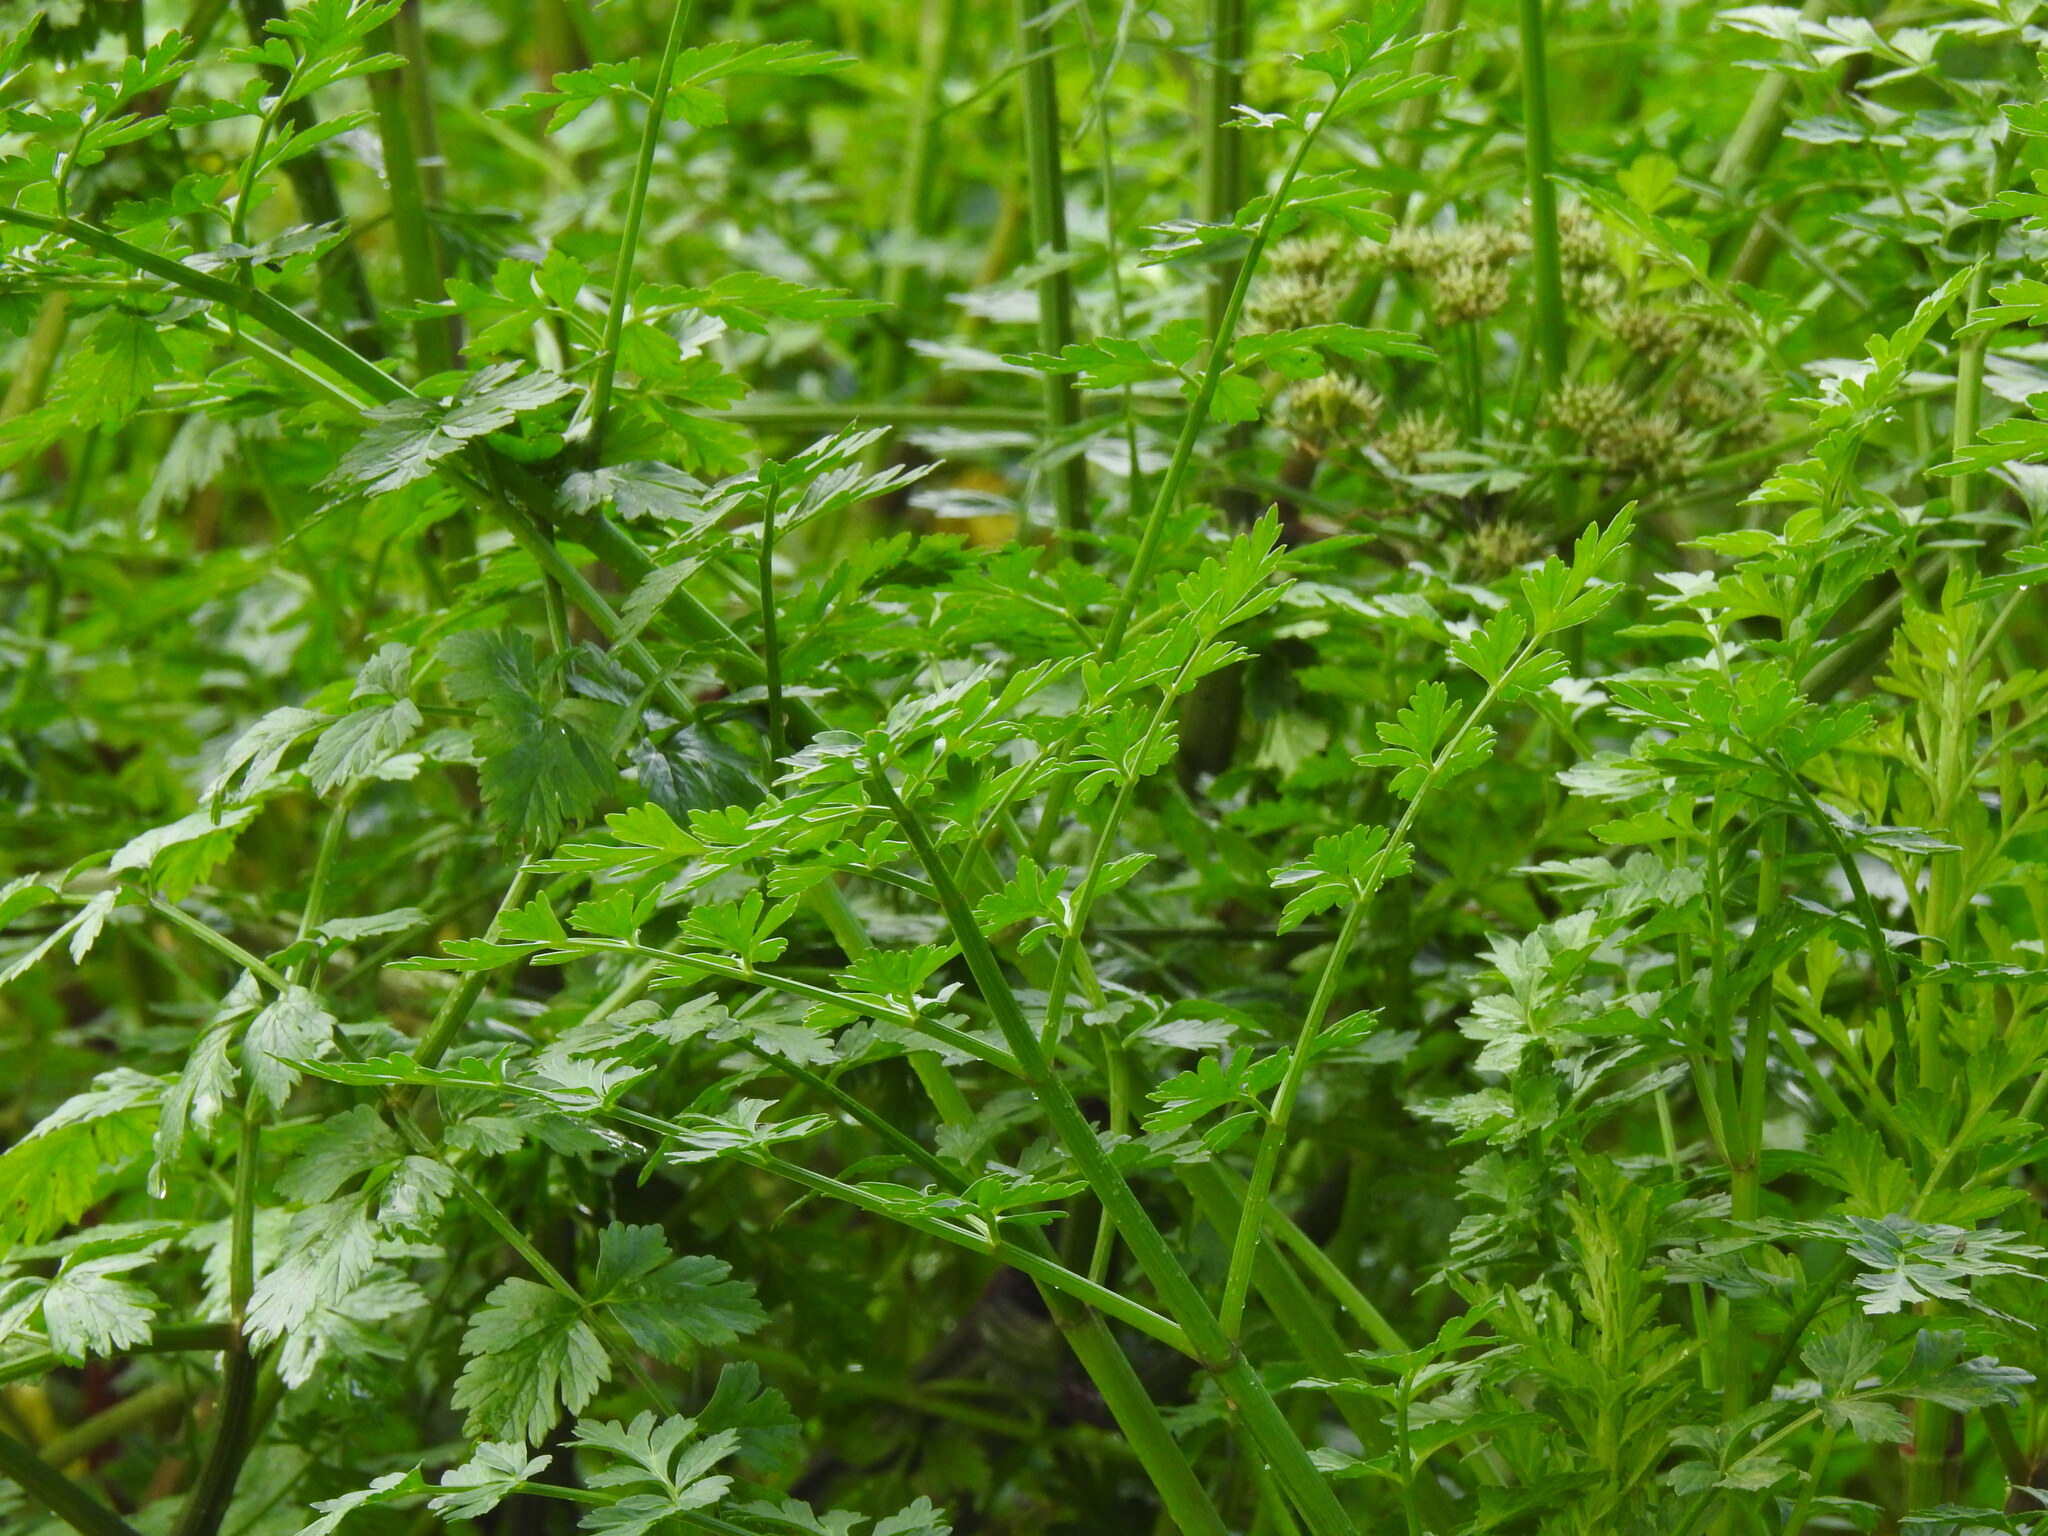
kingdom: Plantae
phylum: Tracheophyta
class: Magnoliopsida
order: Apiales
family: Apiaceae
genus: Oenanthe
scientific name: Oenanthe crocata
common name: Hemlock water-dropwort
